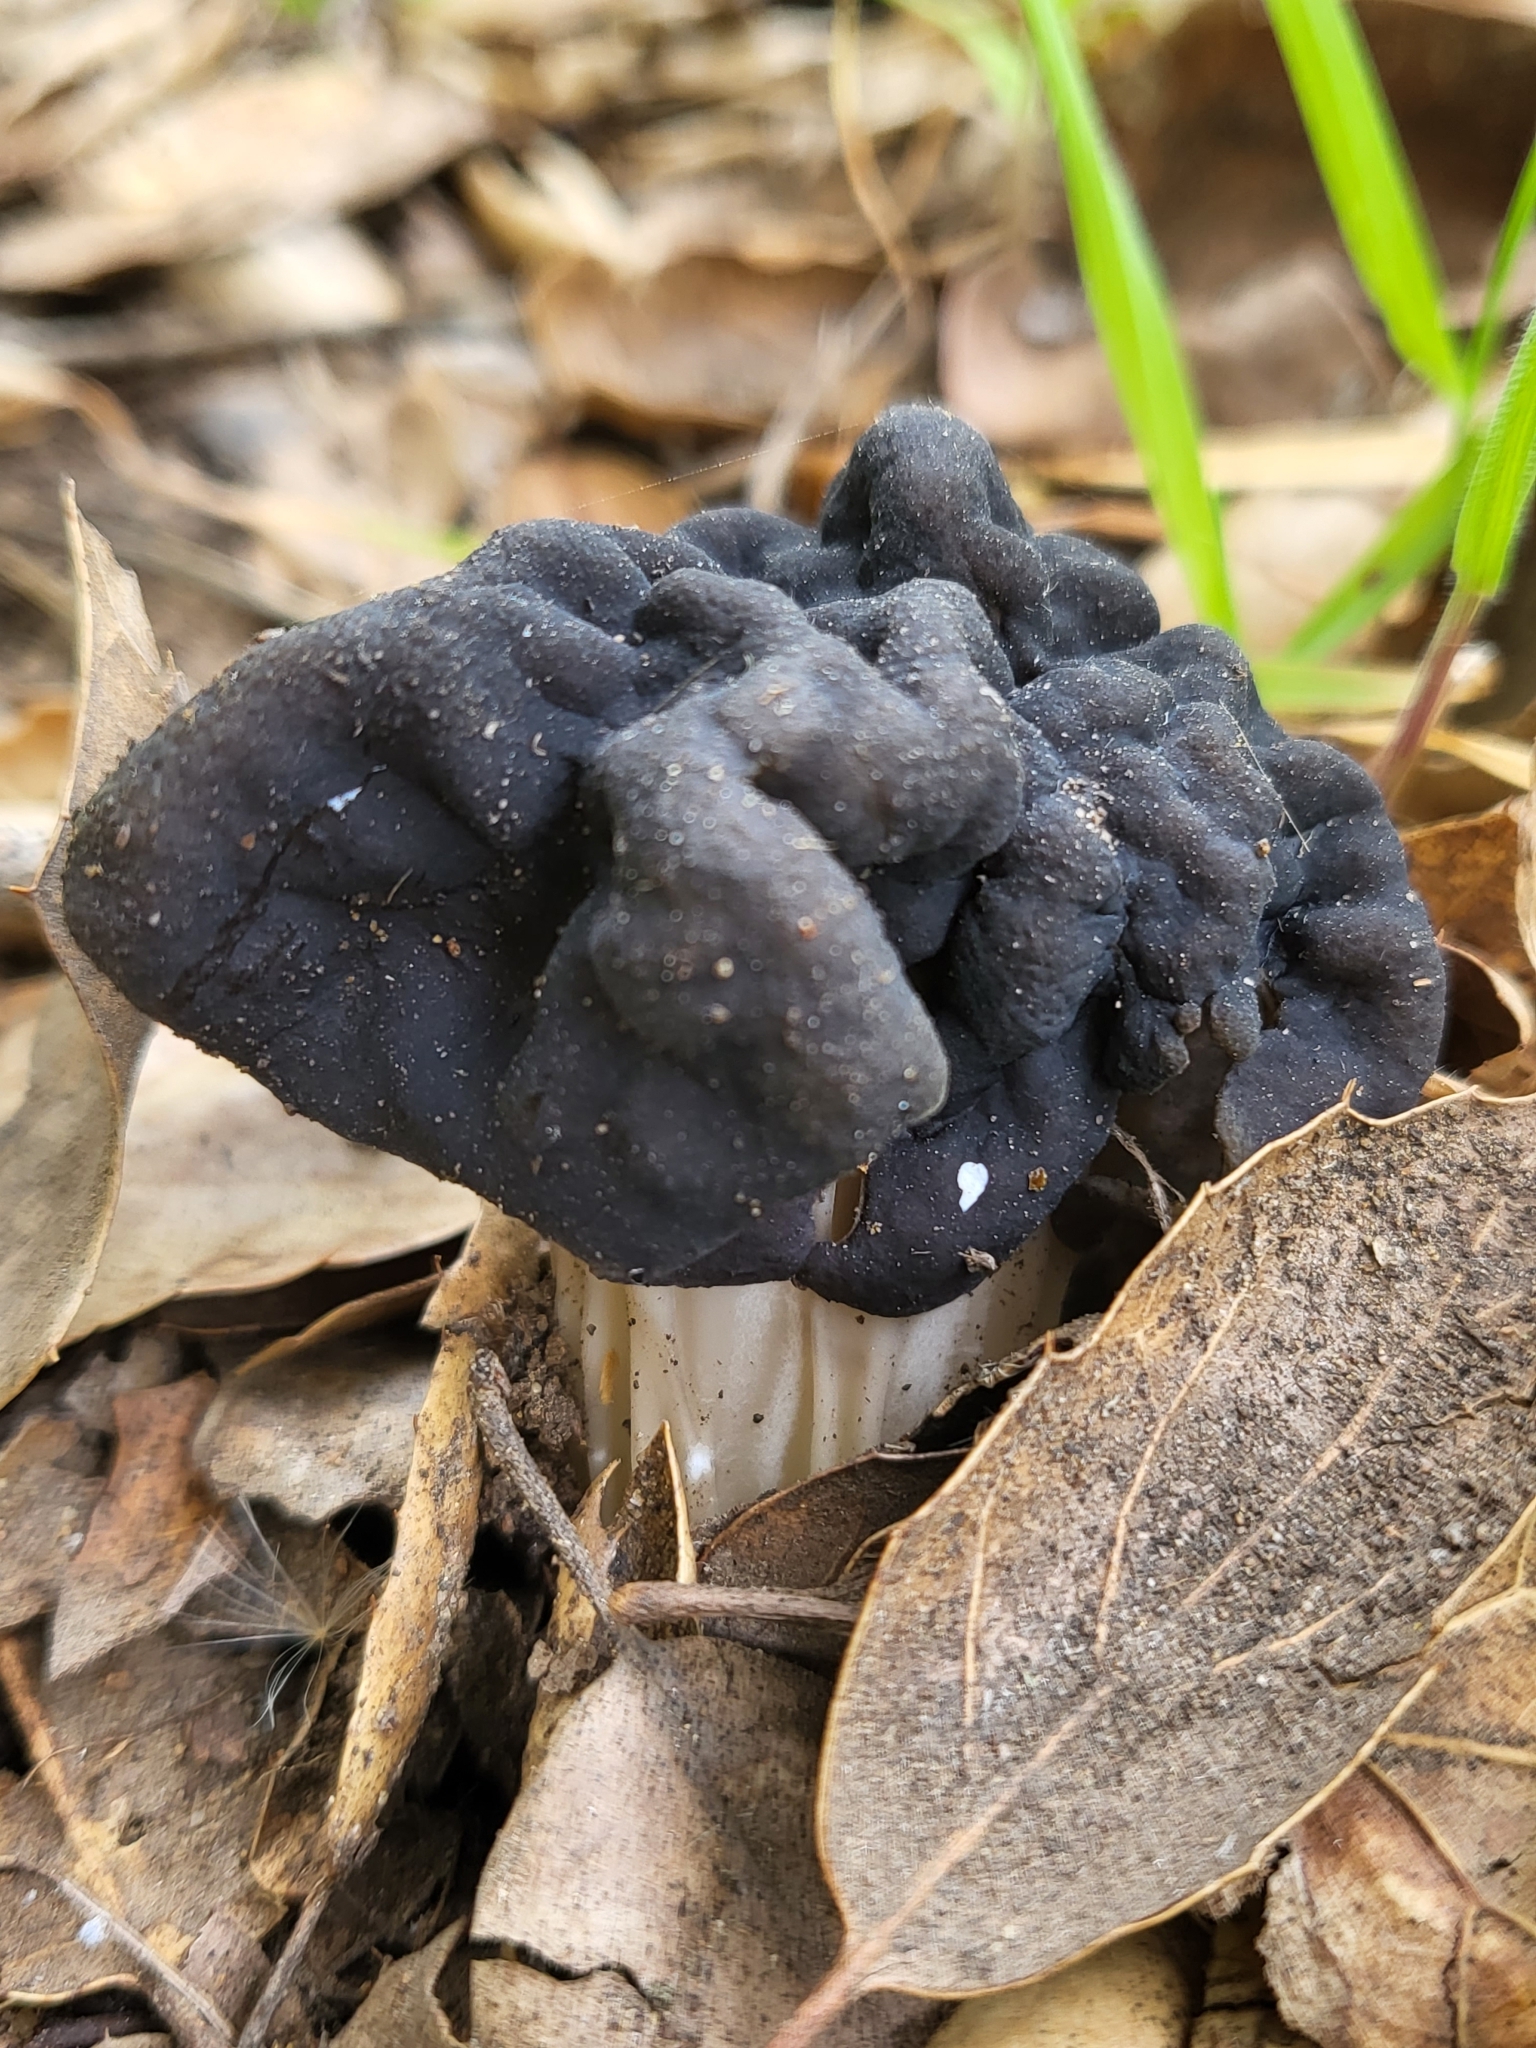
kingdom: Fungi
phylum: Ascomycota
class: Pezizomycetes
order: Pezizales
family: Helvellaceae
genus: Helvella
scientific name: Helvella dryophila
